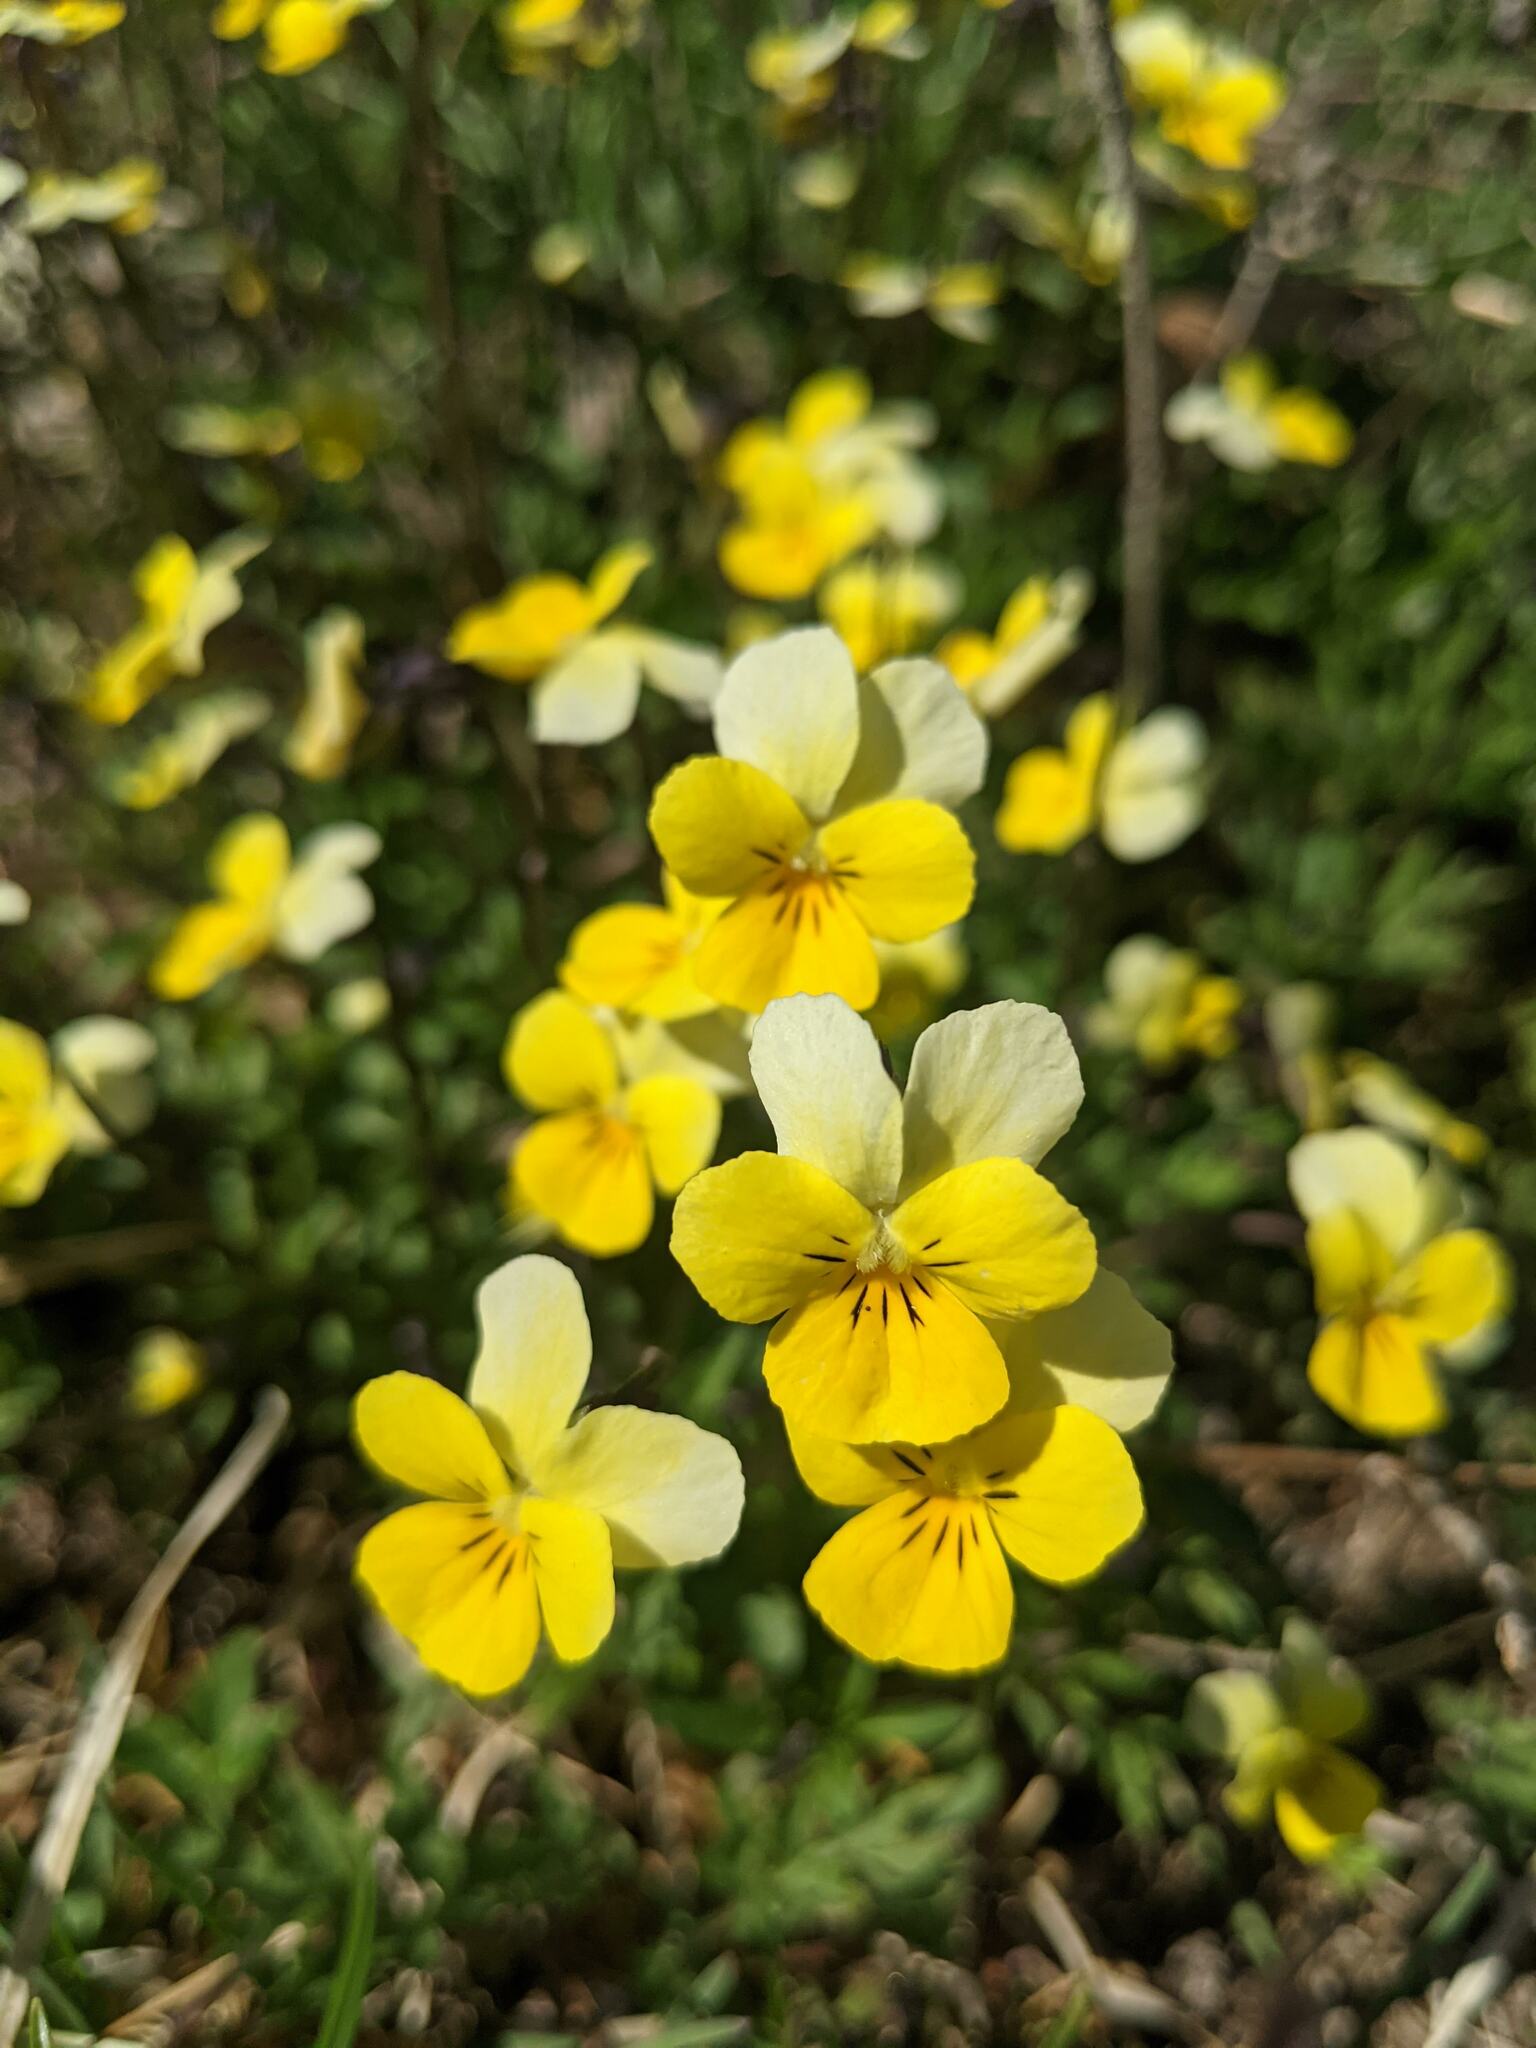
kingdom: Plantae
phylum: Tracheophyta
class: Magnoliopsida
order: Malpighiales
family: Violaceae
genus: Viola
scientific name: Viola tricolor
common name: Pansy
